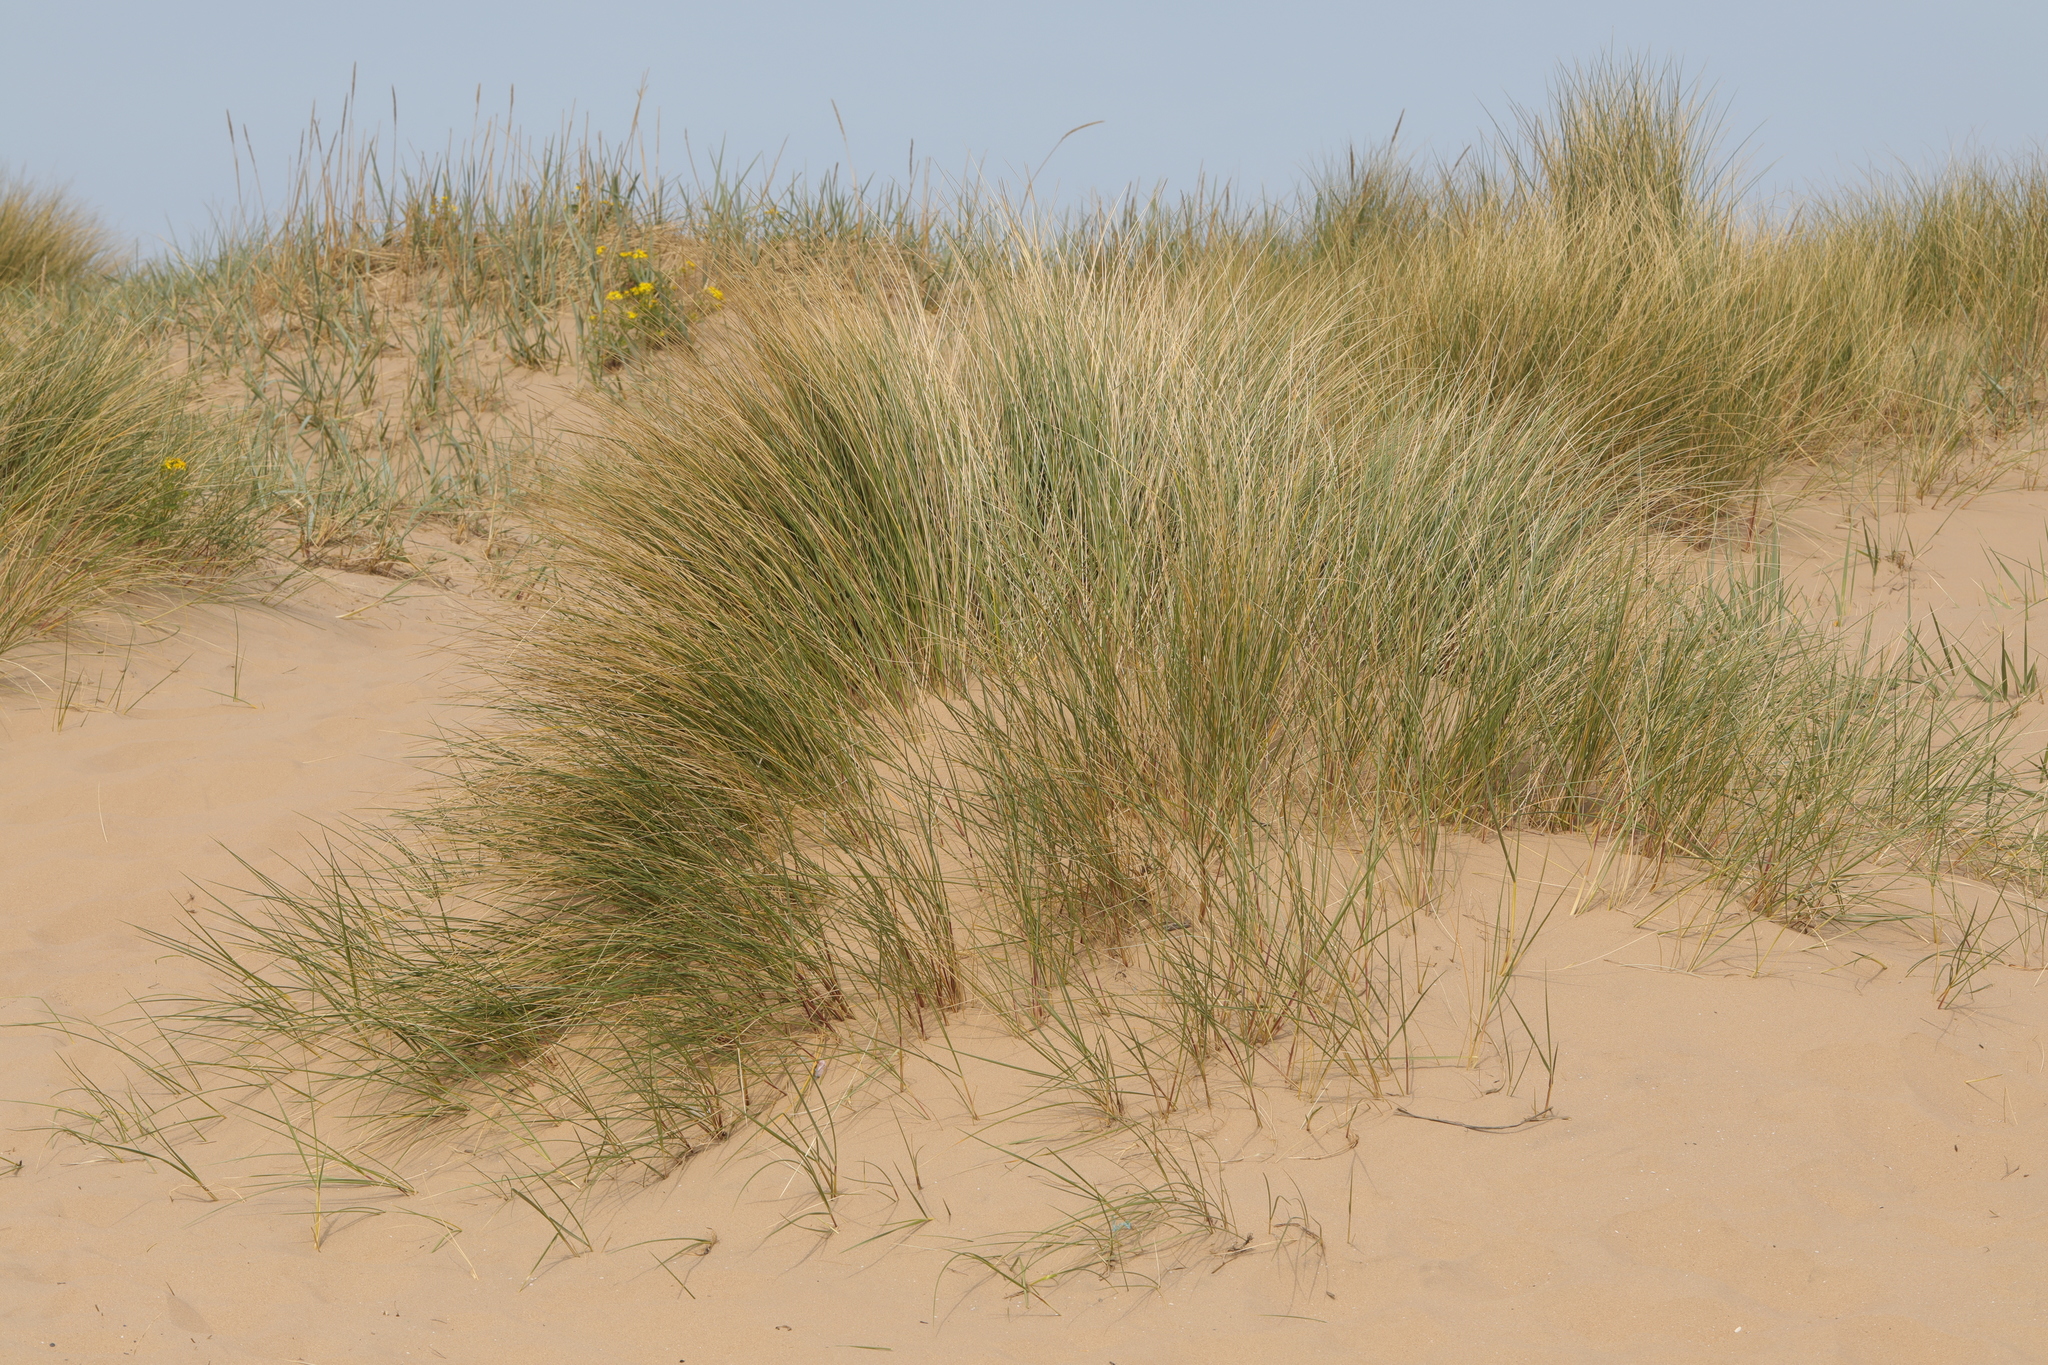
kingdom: Plantae
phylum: Tracheophyta
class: Liliopsida
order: Poales
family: Poaceae
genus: Calamagrostis
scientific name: Calamagrostis arenaria
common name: European beachgrass
